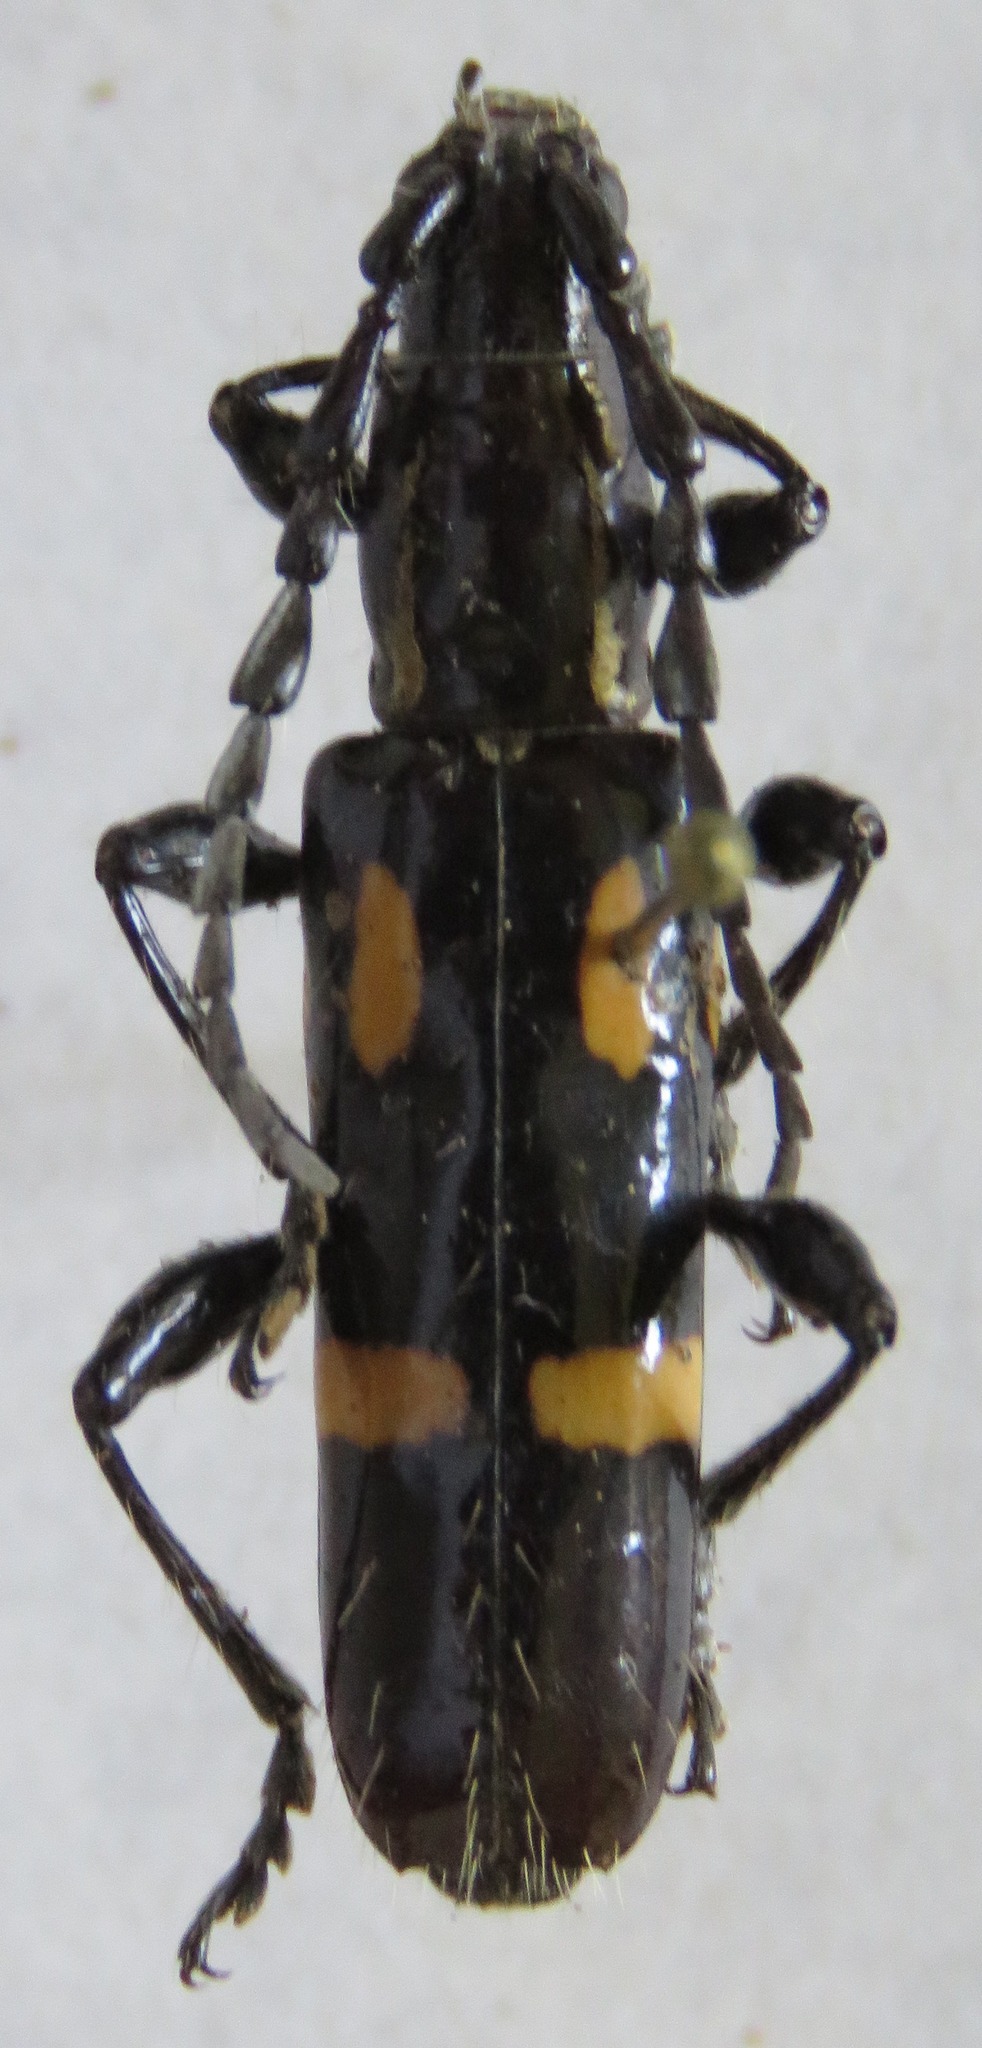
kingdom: Animalia
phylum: Arthropoda
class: Insecta
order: Coleoptera
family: Cerambycidae
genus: Platyarthron
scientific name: Platyarthron chilense
